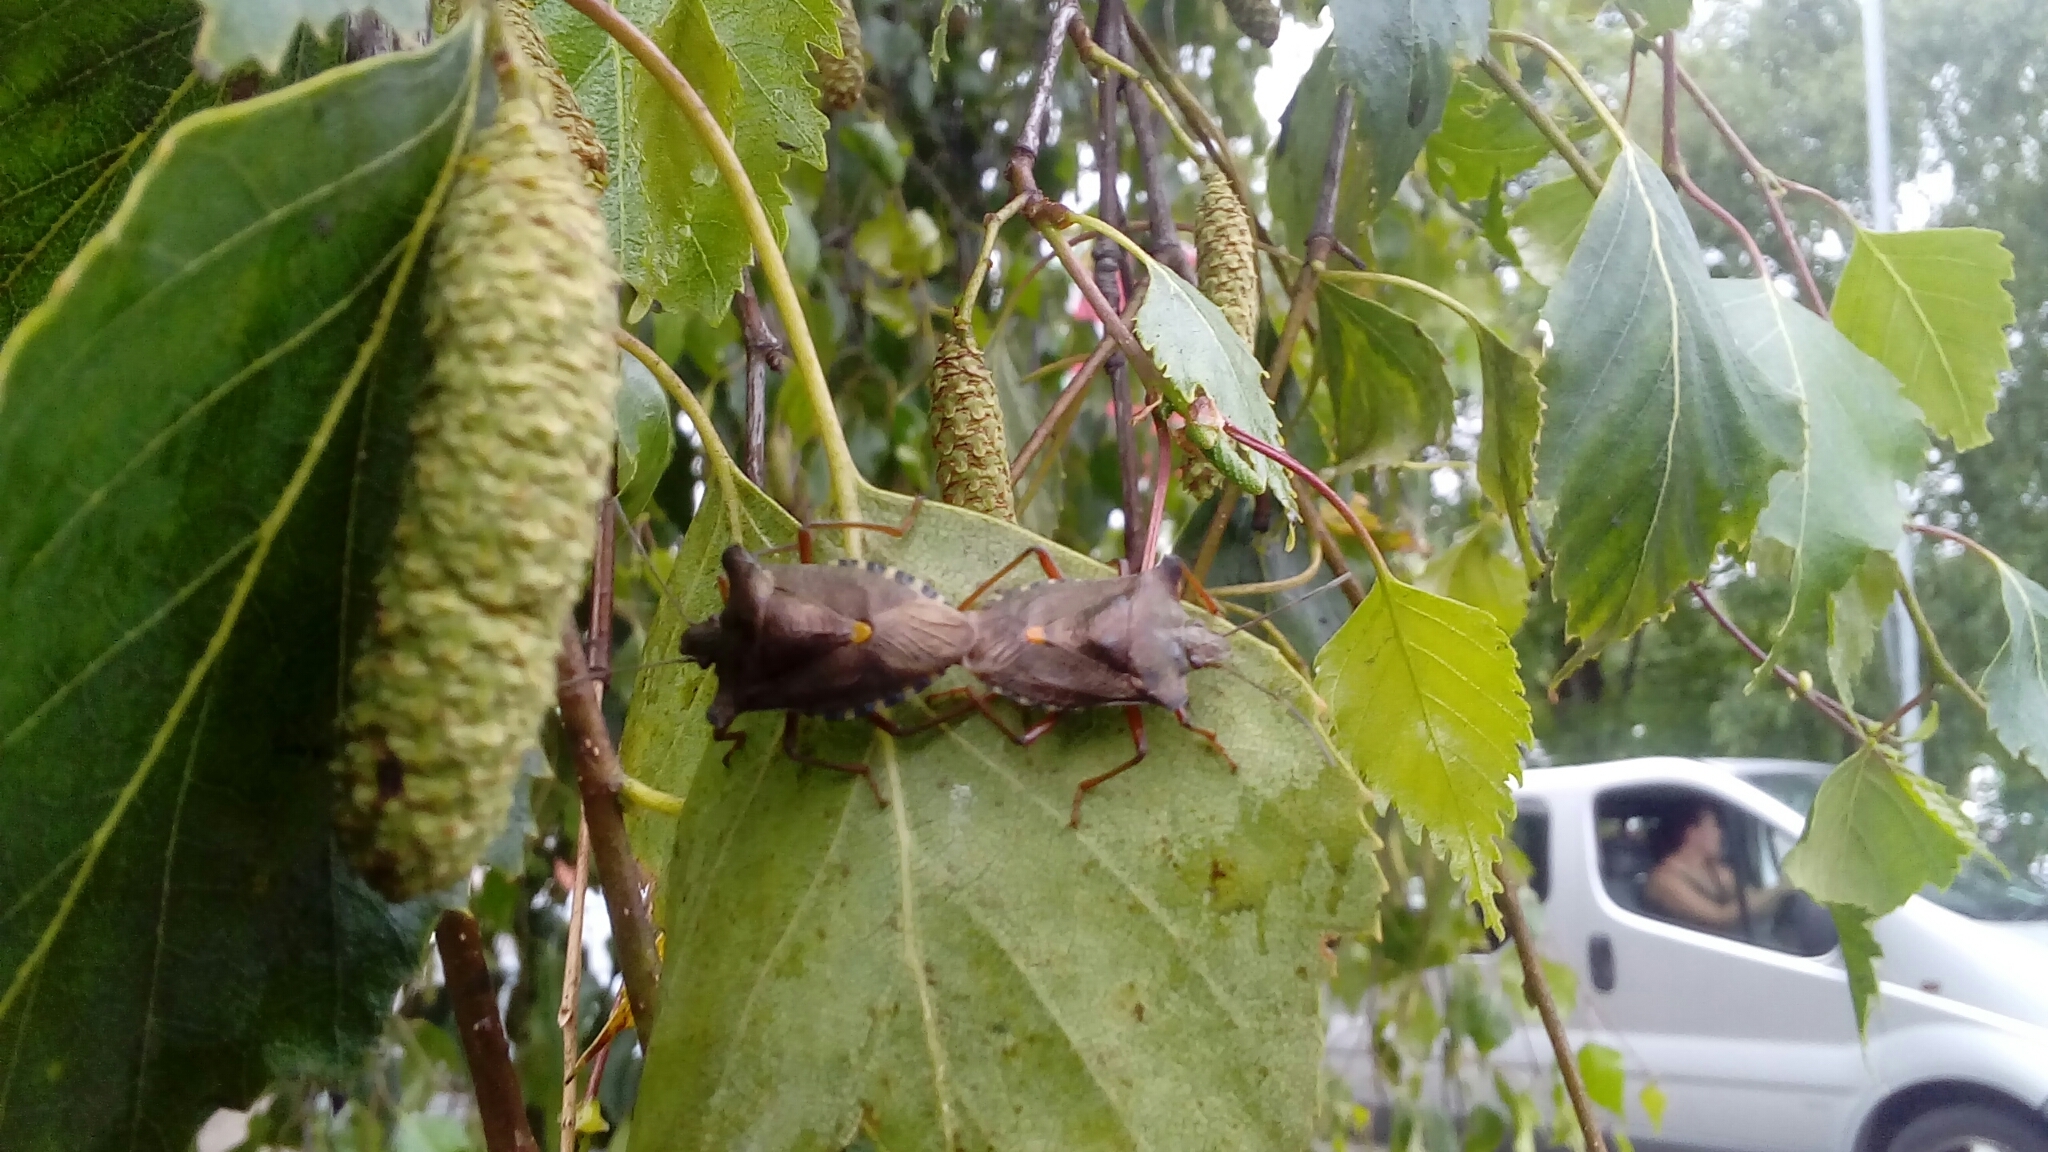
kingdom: Animalia
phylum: Arthropoda
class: Insecta
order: Hemiptera
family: Pentatomidae
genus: Pentatoma
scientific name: Pentatoma rufipes
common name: Forest bug
